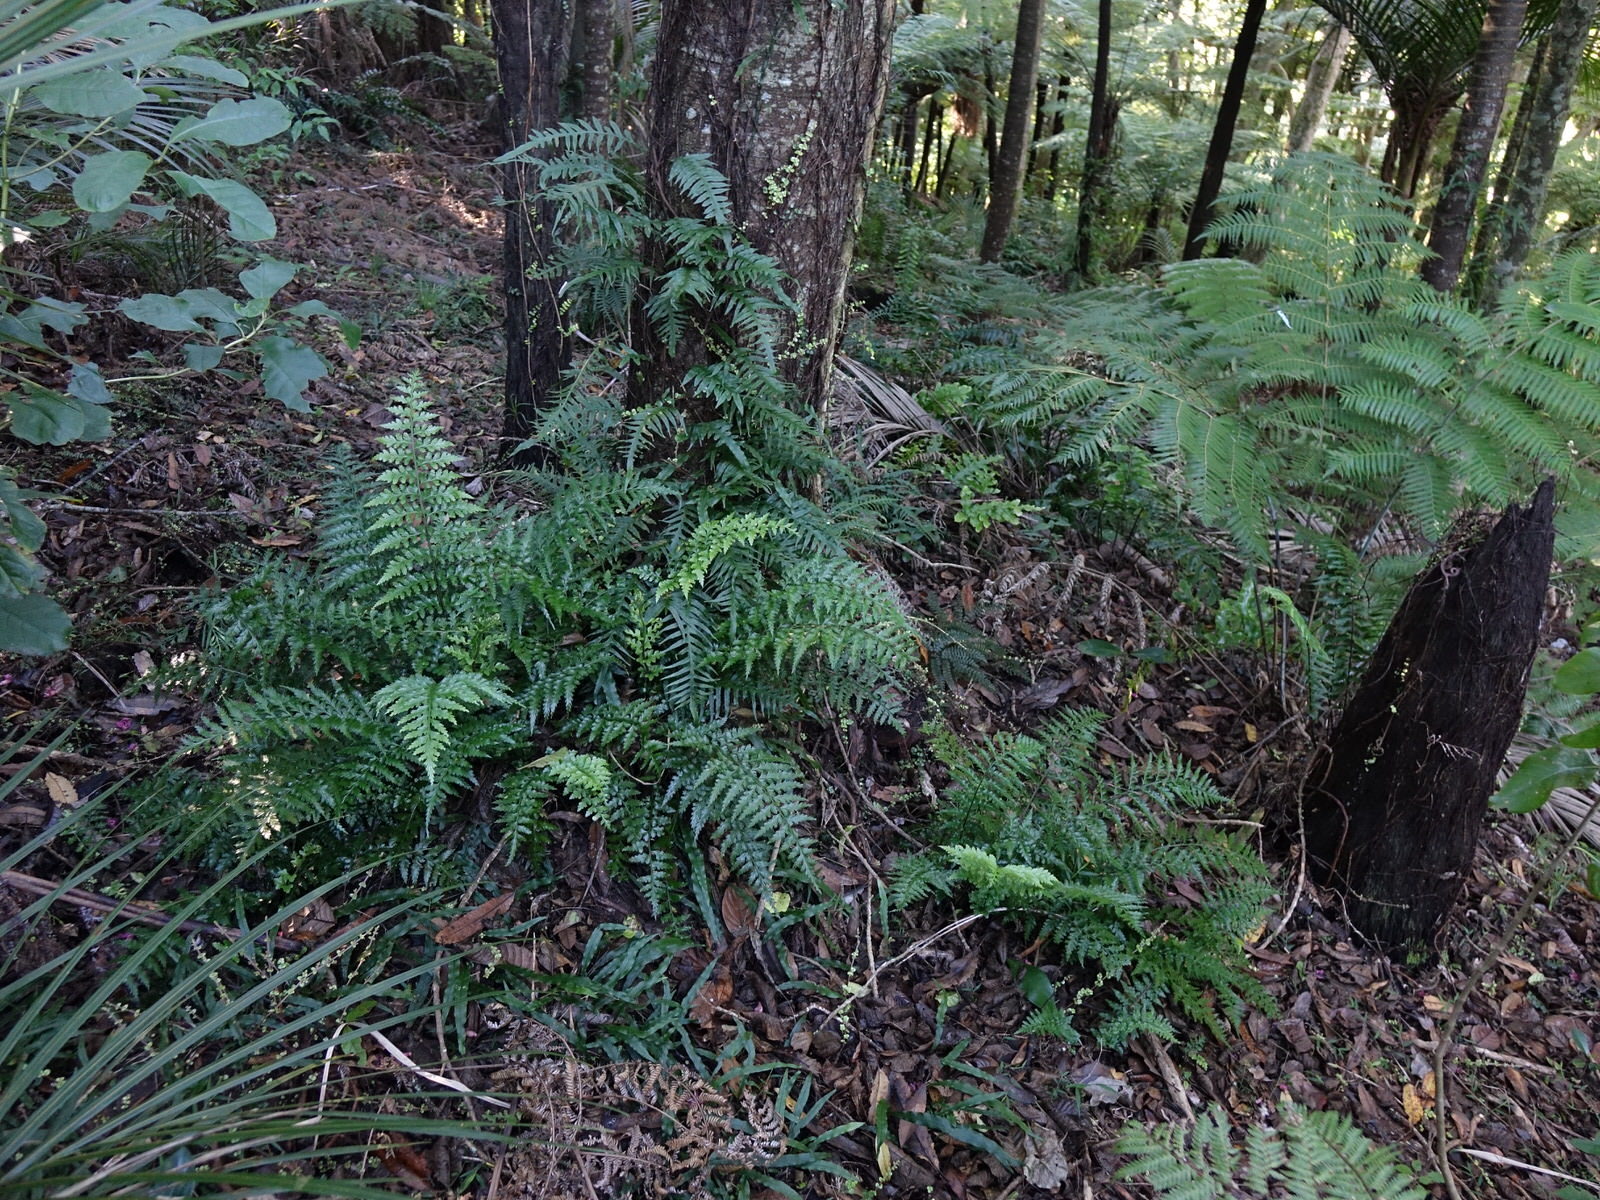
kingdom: Plantae
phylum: Tracheophyta
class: Polypodiopsida
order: Polypodiales
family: Aspleniaceae
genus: Asplenium
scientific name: Asplenium lamprophyllum
